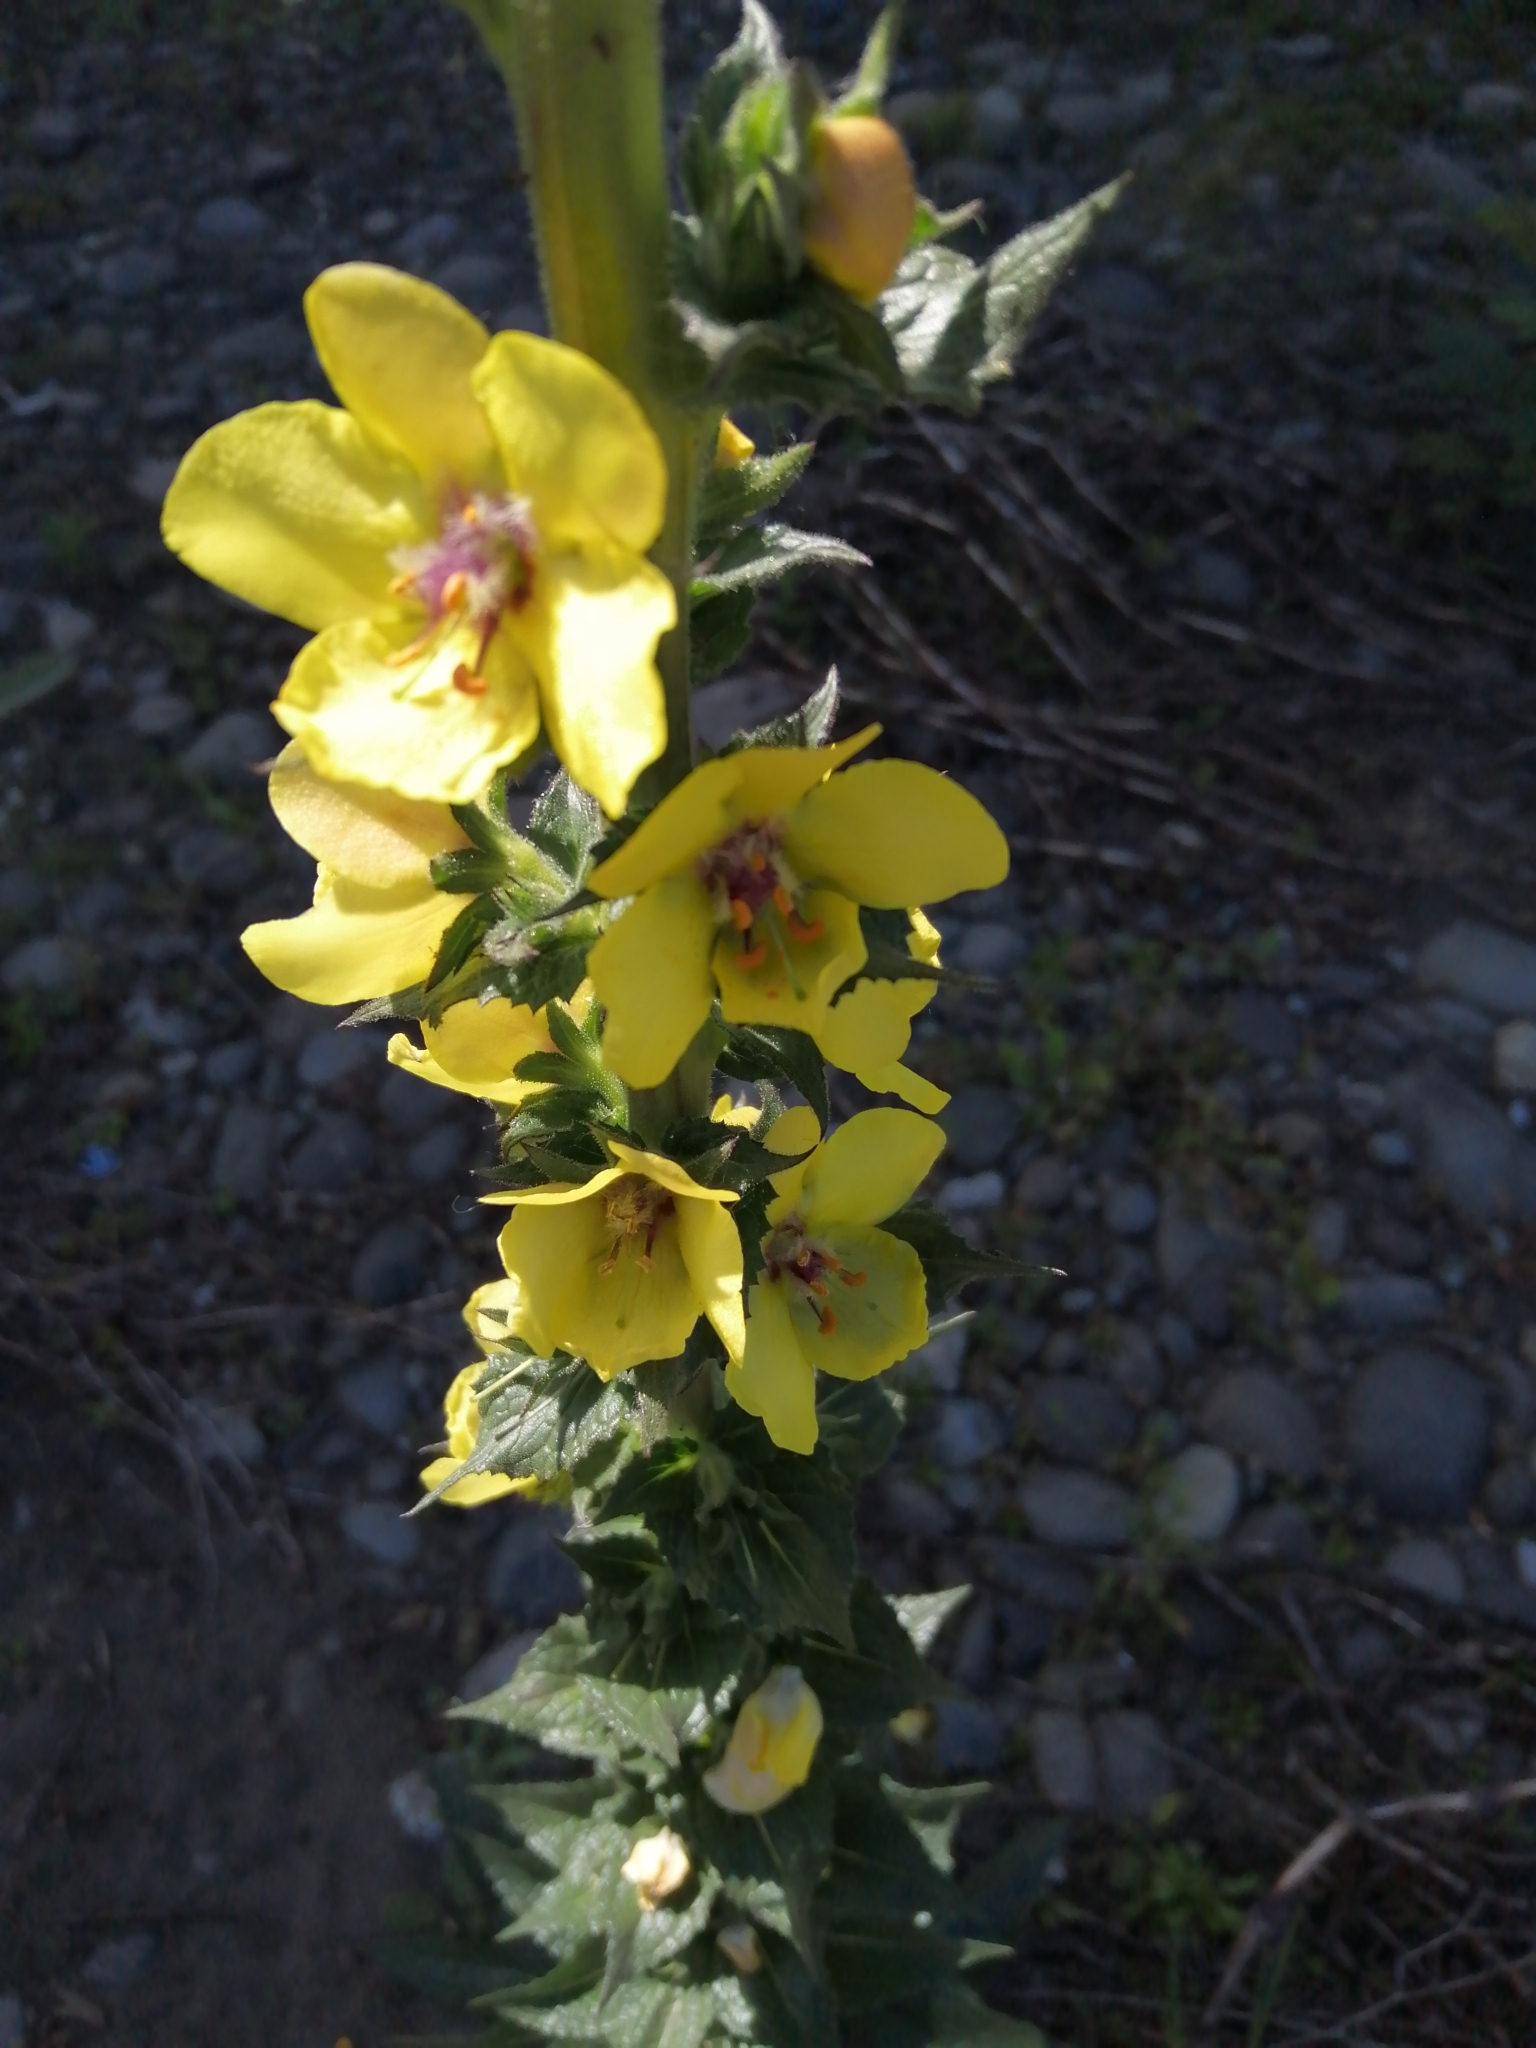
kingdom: Plantae
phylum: Tracheophyta
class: Magnoliopsida
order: Lamiales
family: Scrophulariaceae
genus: Verbascum
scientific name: Verbascum virgatum
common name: Twiggy mullein
